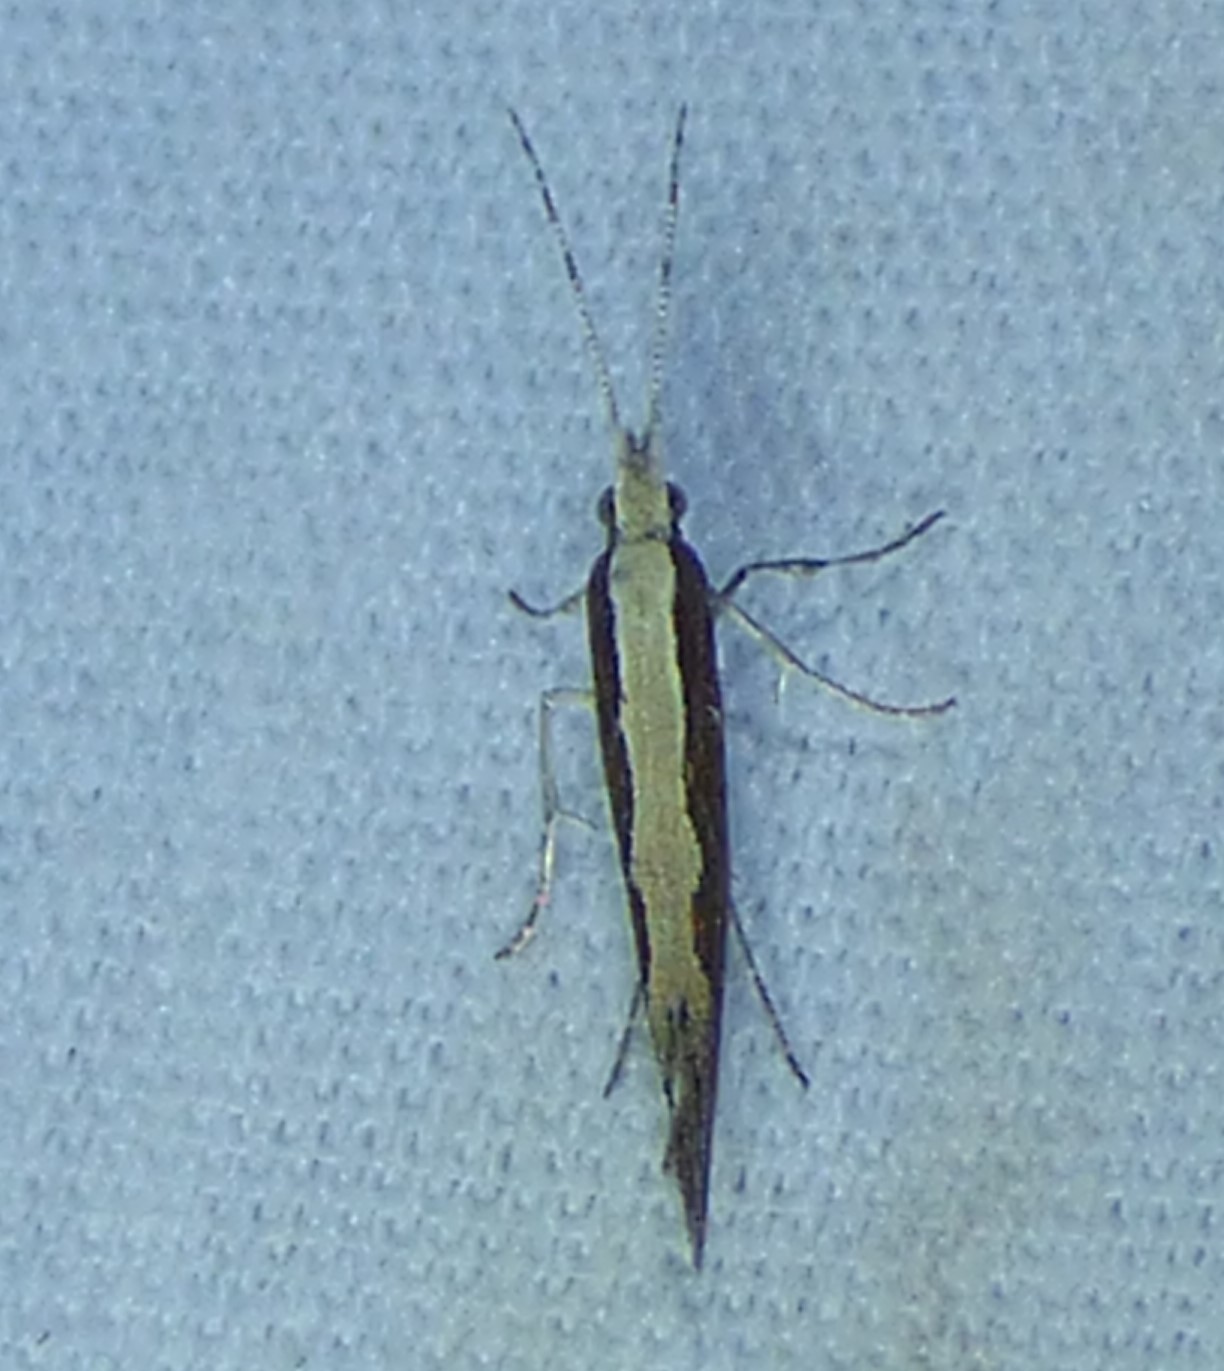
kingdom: Animalia
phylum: Arthropoda
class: Insecta
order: Lepidoptera
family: Plutellidae
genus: Plutella
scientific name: Plutella xylostella
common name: Diamond-back moth
